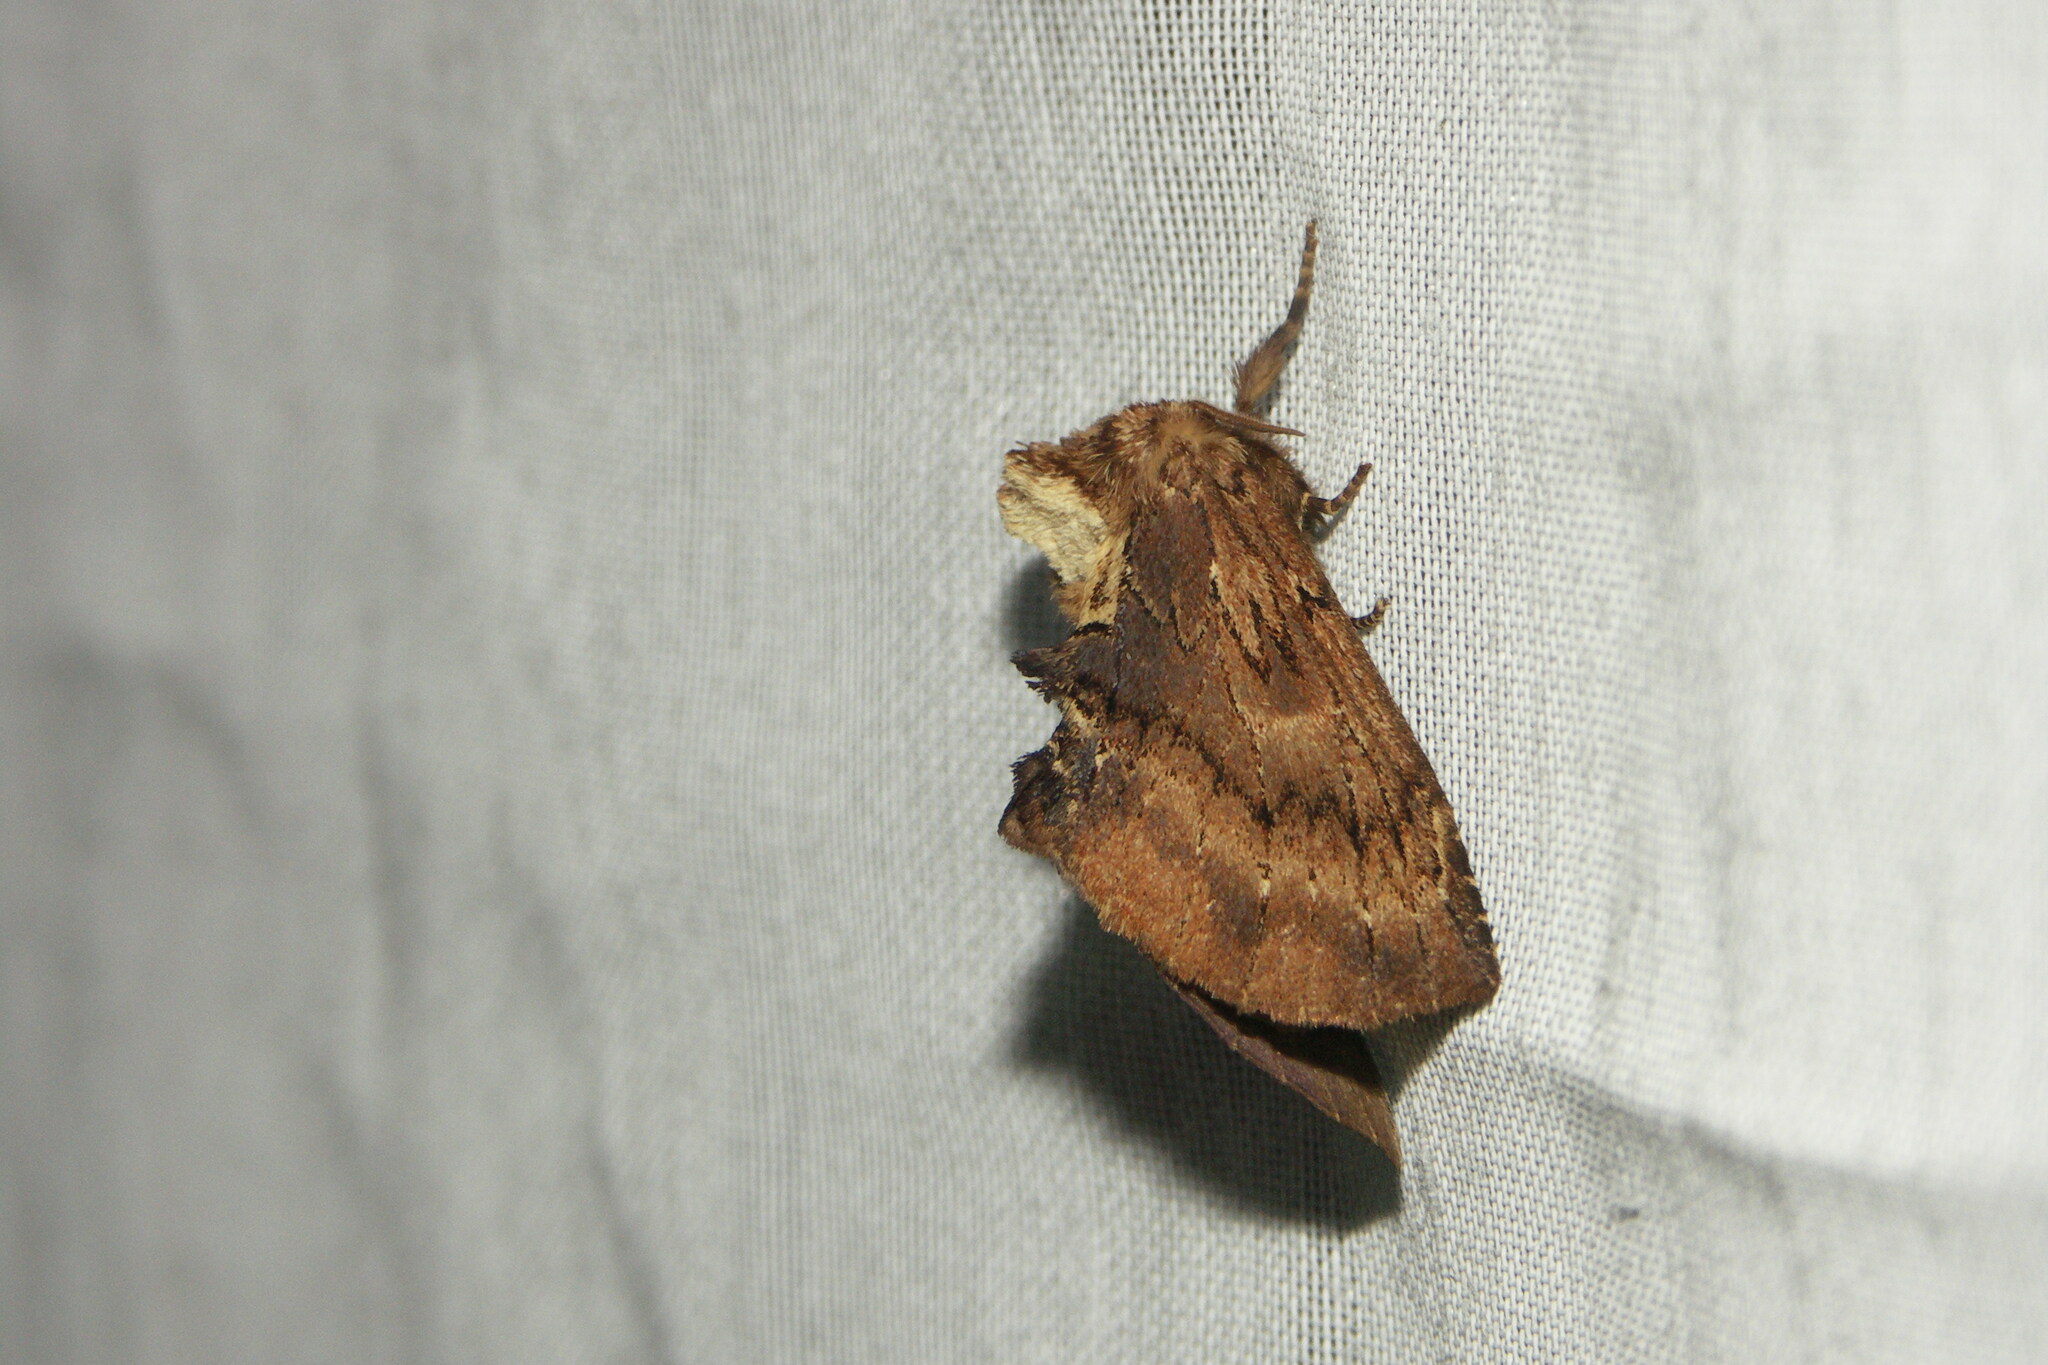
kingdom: Animalia
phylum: Arthropoda
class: Insecta
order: Lepidoptera
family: Notodontidae
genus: Ptilodon
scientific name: Ptilodon capucina
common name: Coxcomb prominent
